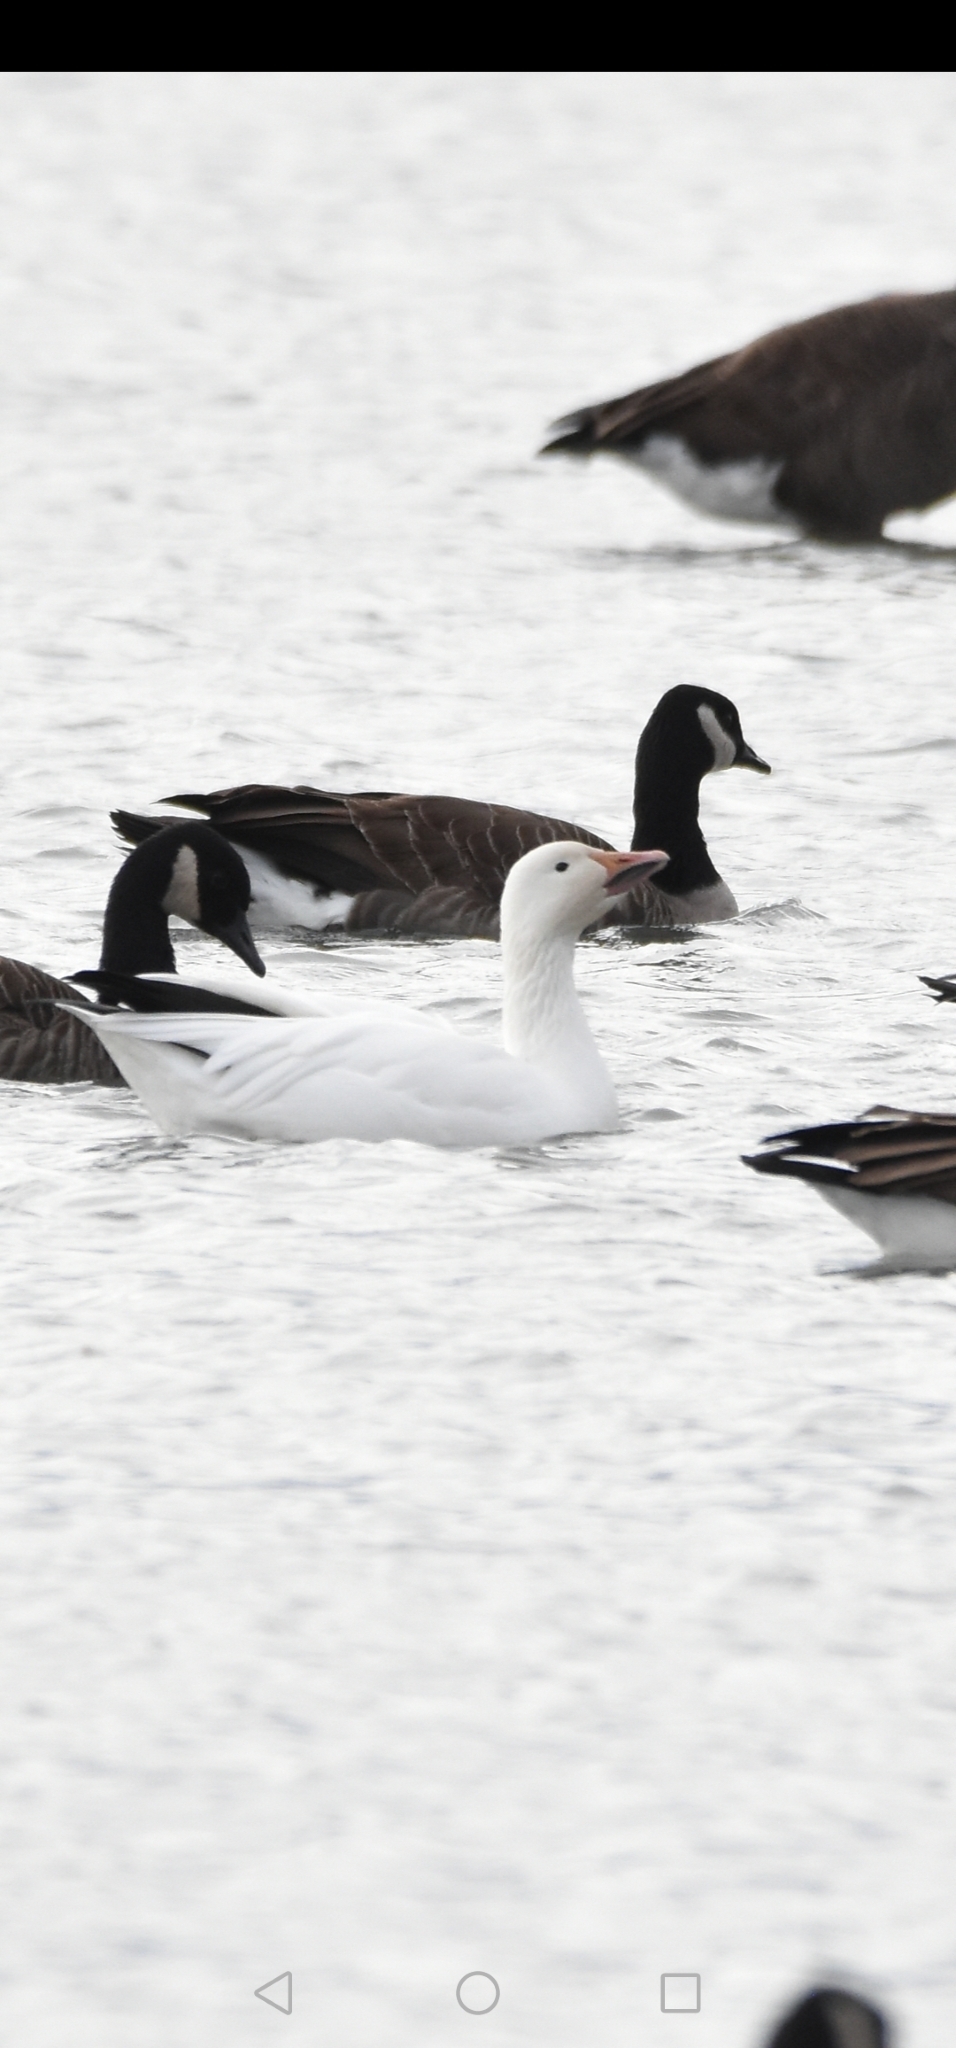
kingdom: Animalia
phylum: Chordata
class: Aves
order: Anseriformes
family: Anatidae
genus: Anser
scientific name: Anser caerulescens
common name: Snow goose
